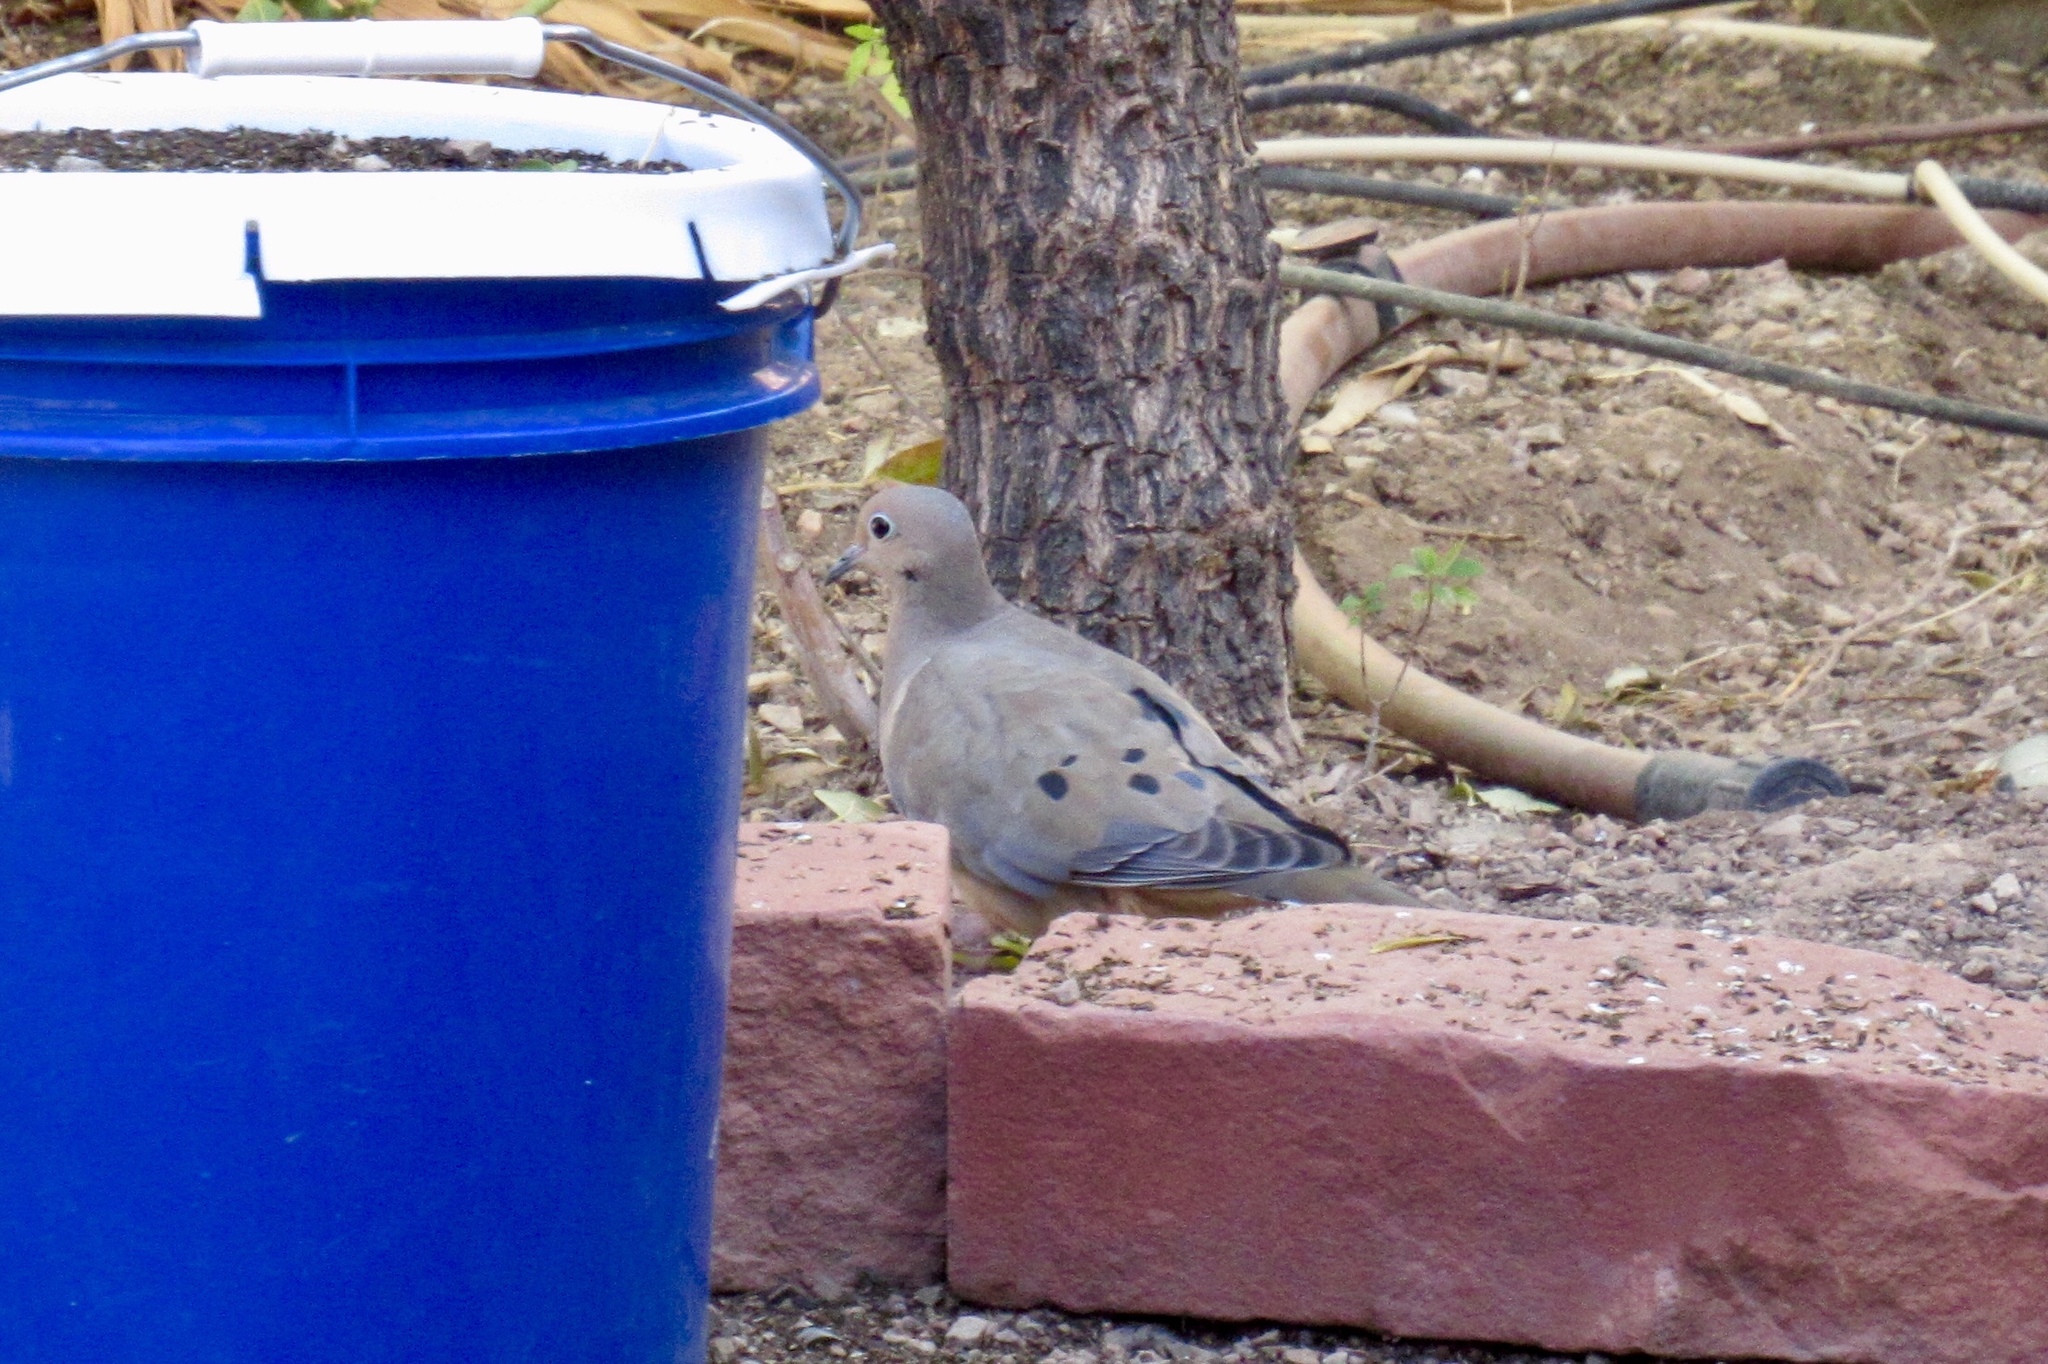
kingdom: Animalia
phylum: Chordata
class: Aves
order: Columbiformes
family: Columbidae
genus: Zenaida
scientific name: Zenaida macroura
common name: Mourning dove
